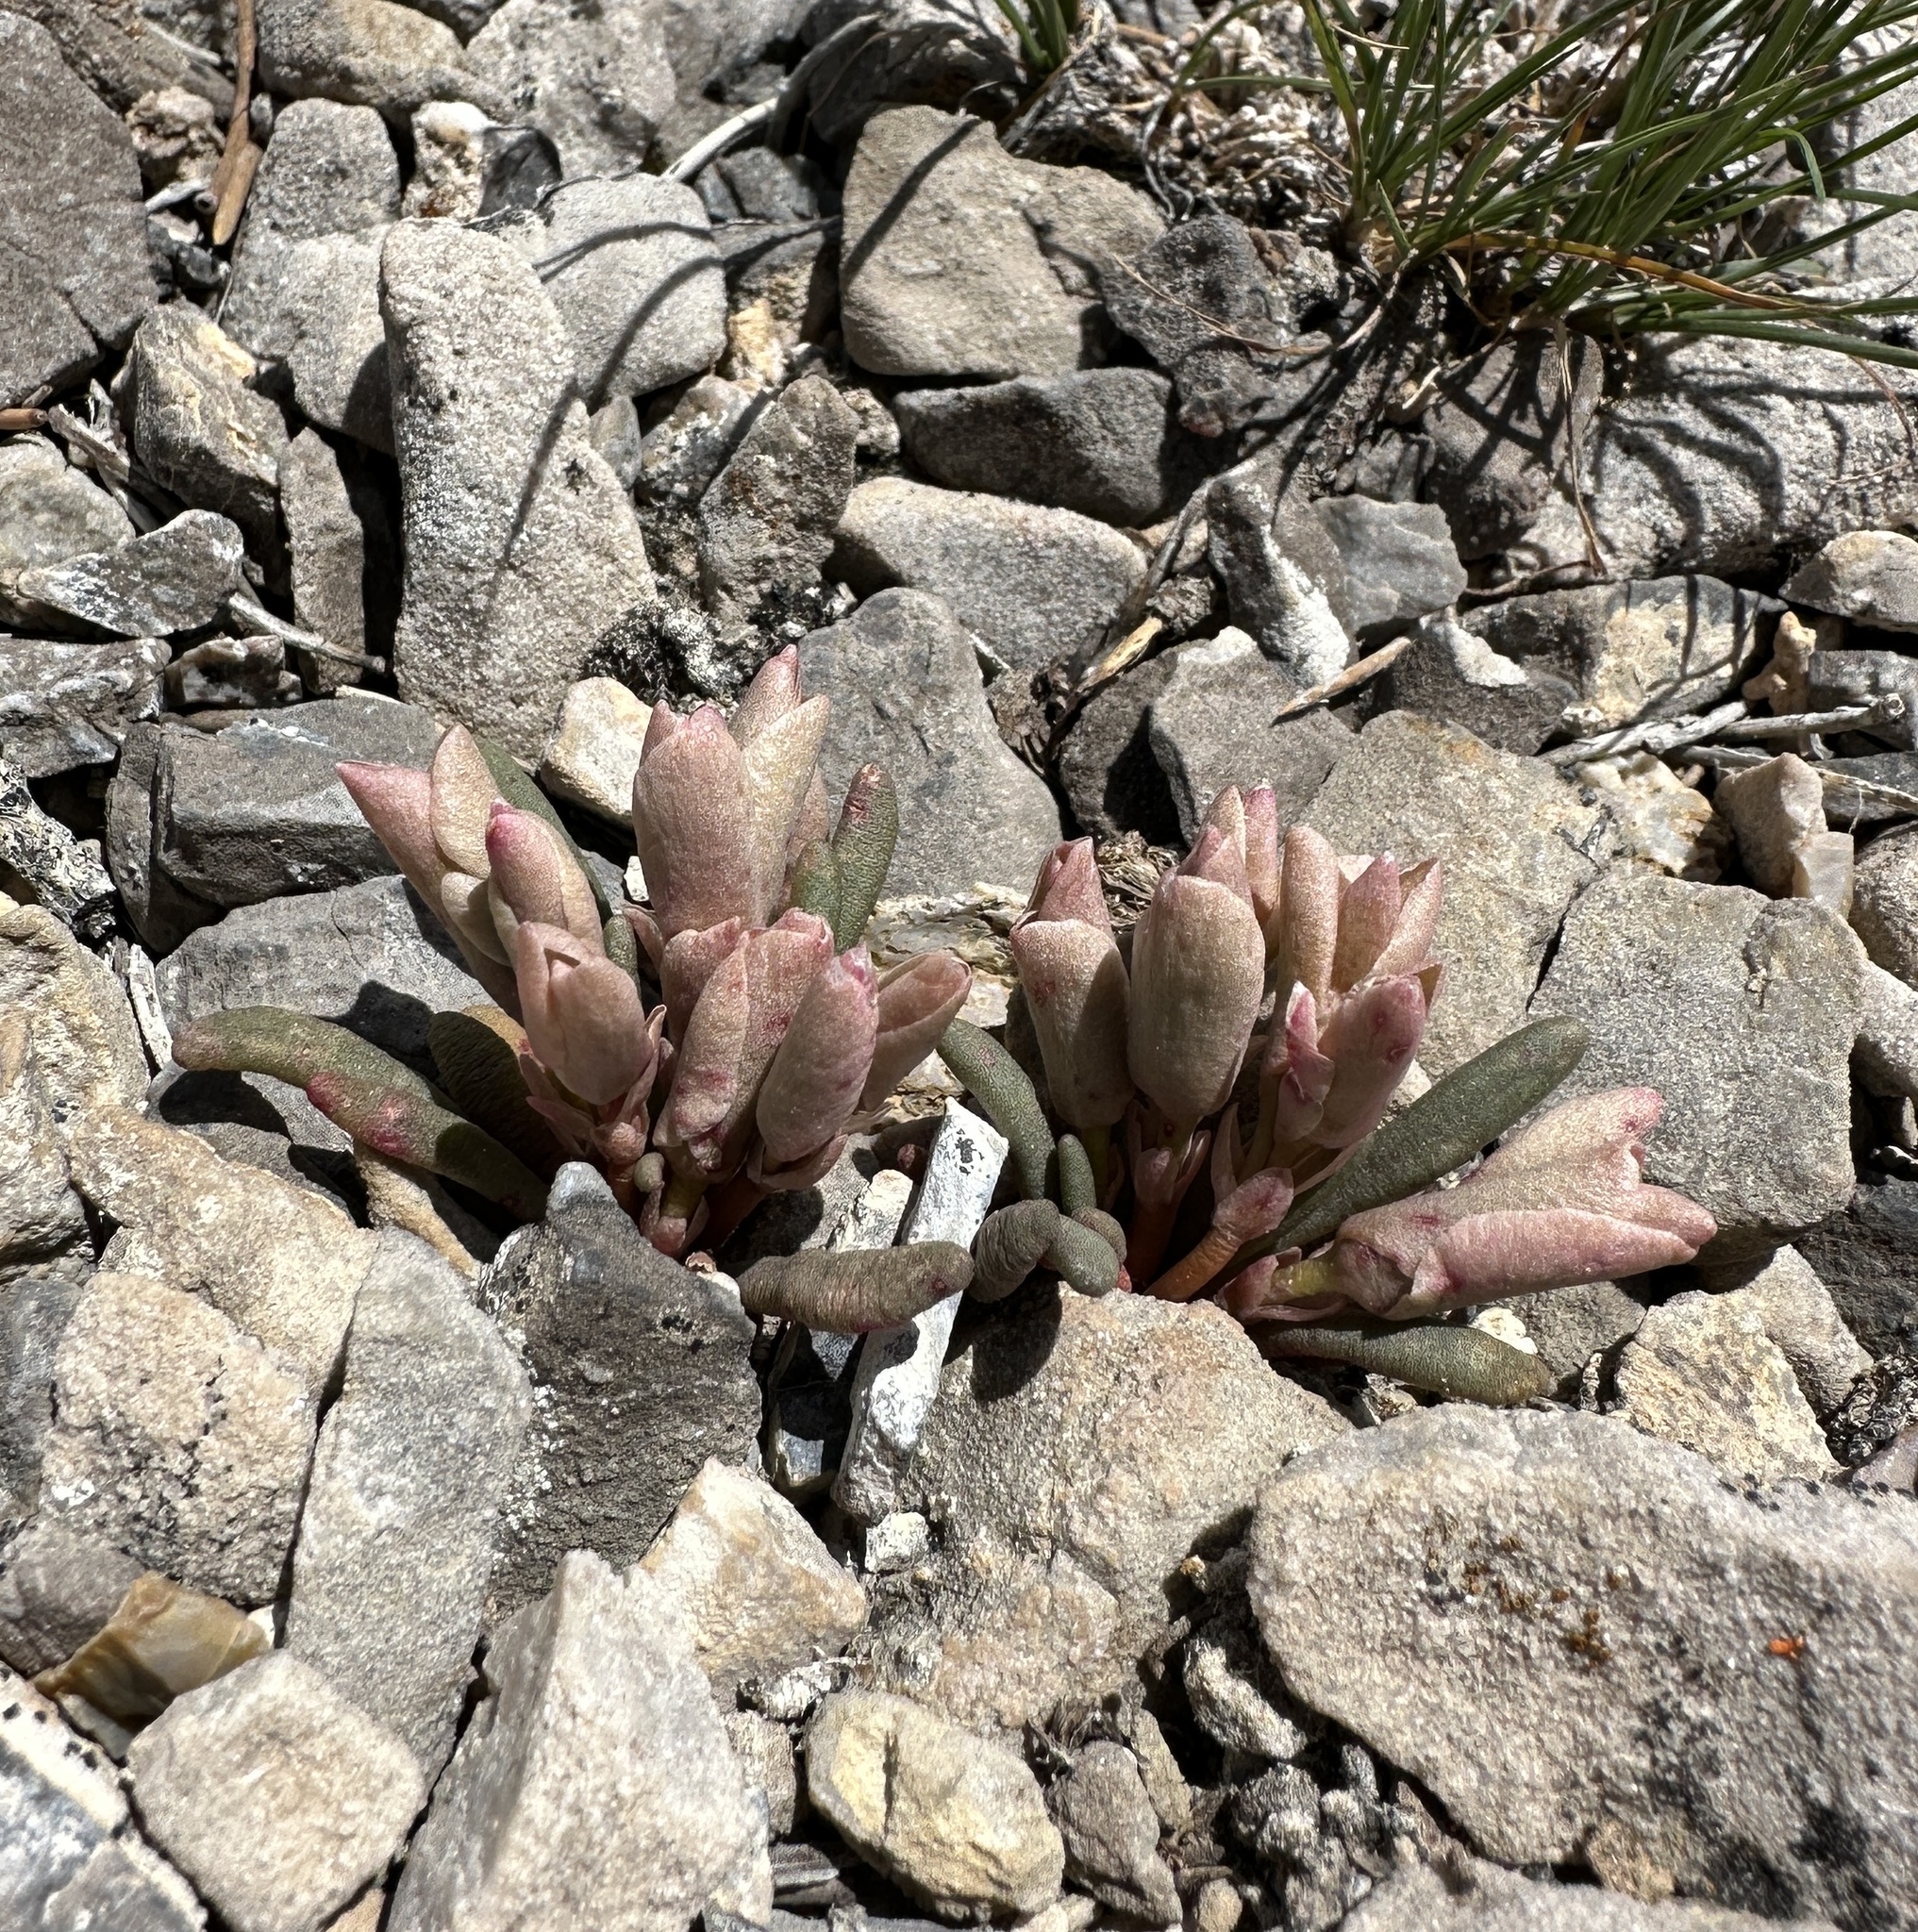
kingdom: Plantae
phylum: Tracheophyta
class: Magnoliopsida
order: Caryophyllales
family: Montiaceae
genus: Lewisia
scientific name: Lewisia maguirei
